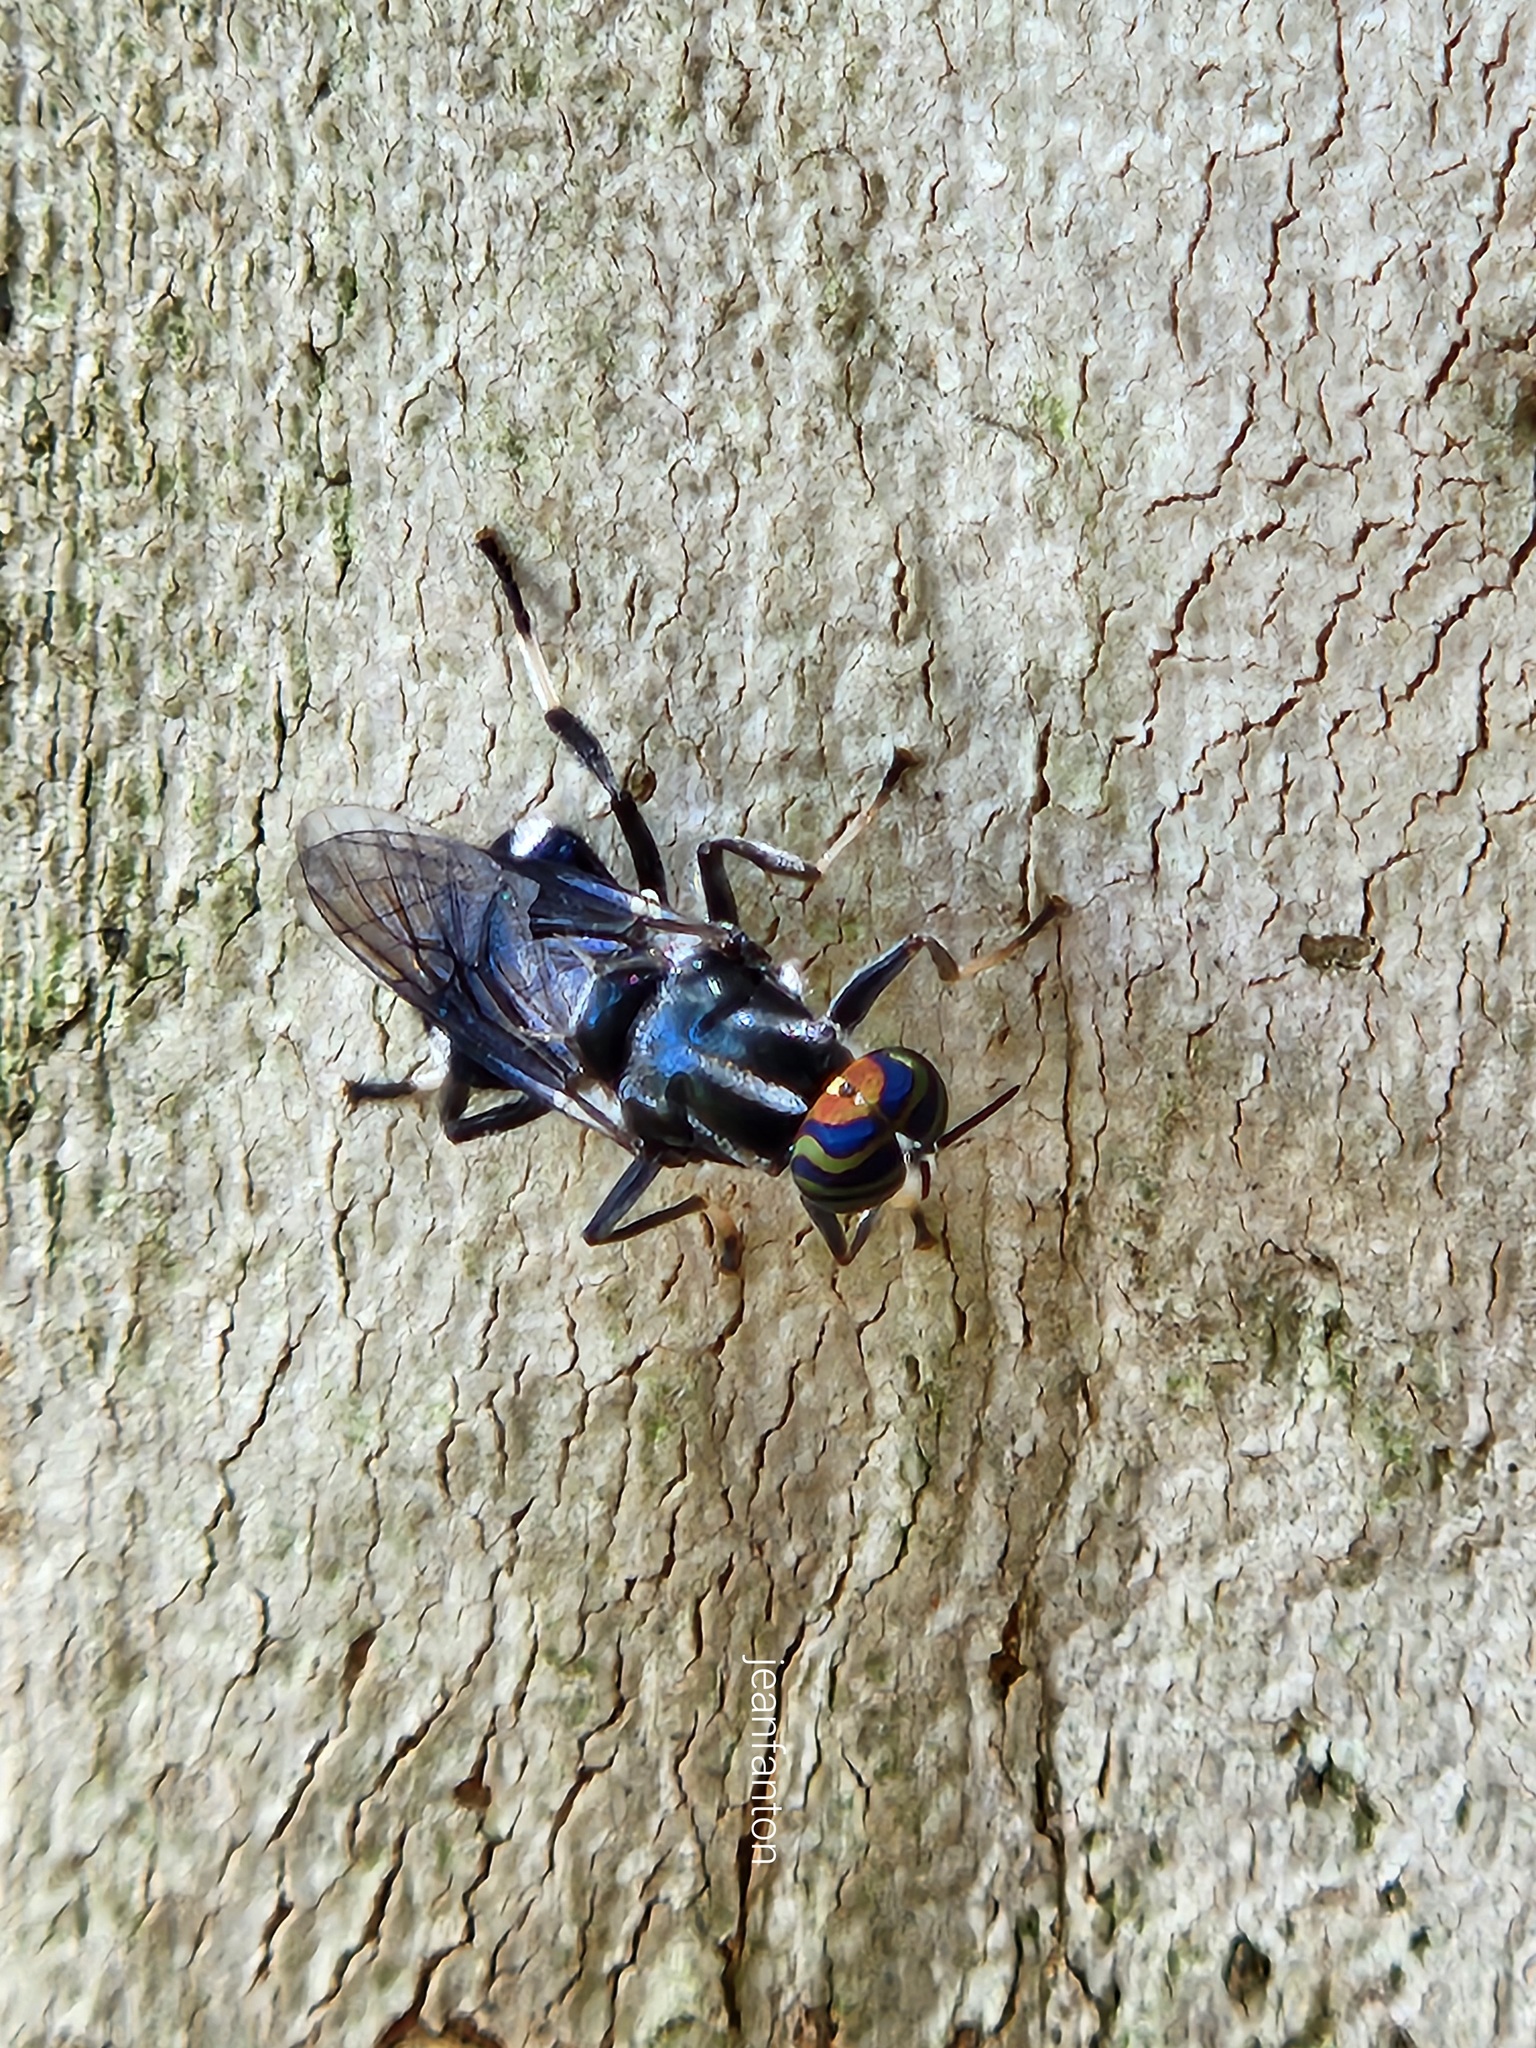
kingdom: Animalia
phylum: Arthropoda
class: Insecta
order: Diptera
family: Stratiomyidae
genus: Cyphomyia
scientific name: Cyphomyia wiedemanni
